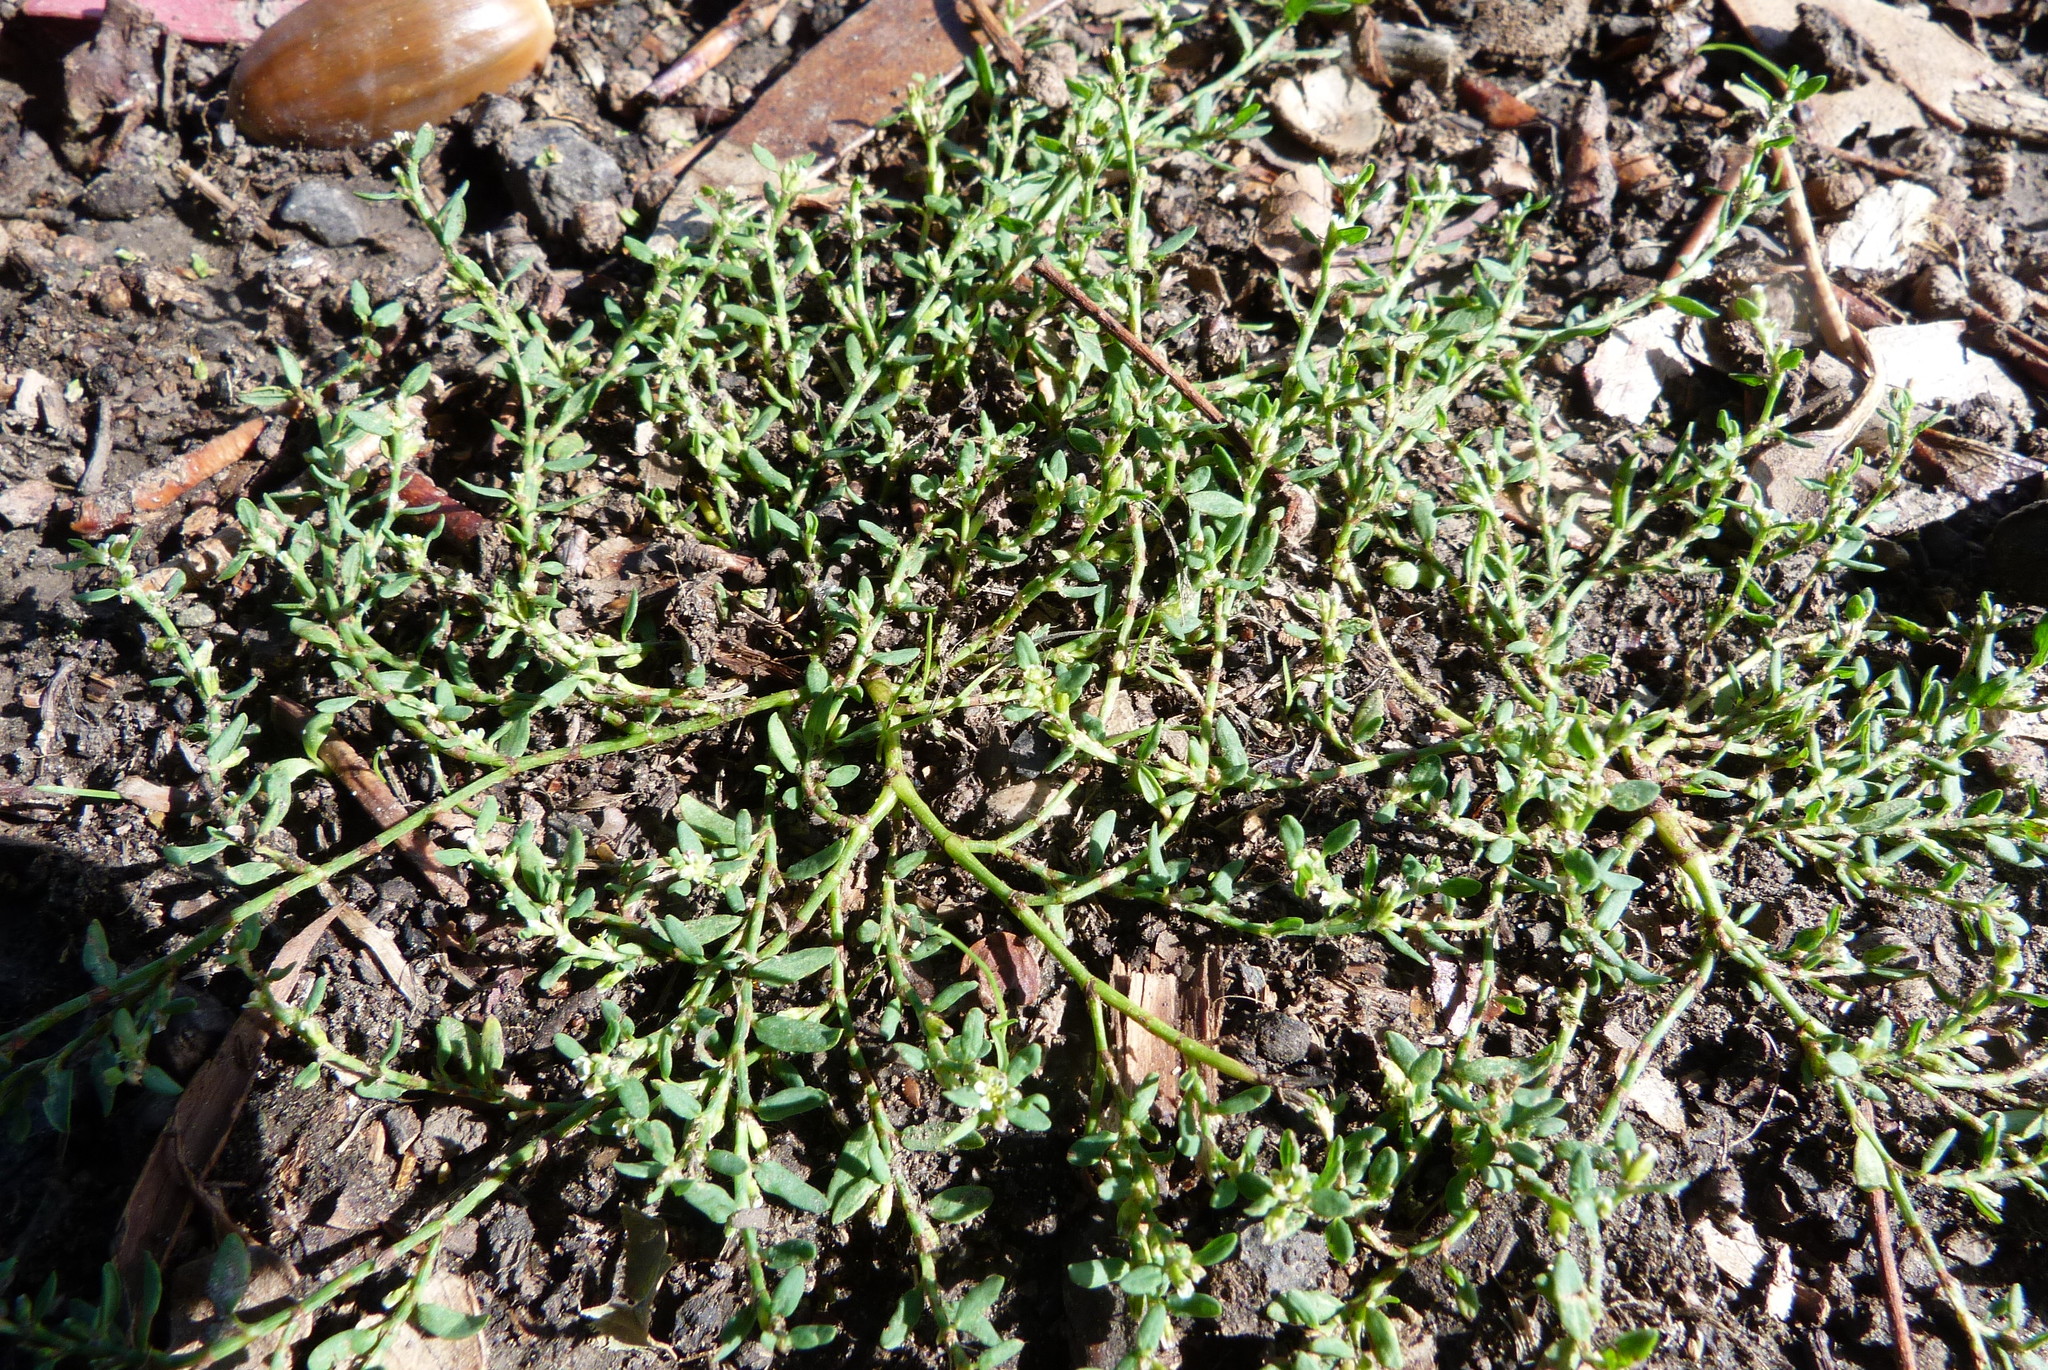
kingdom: Plantae
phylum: Tracheophyta
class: Magnoliopsida
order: Caryophyllales
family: Polygonaceae
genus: Polygonum
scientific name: Polygonum aviculare
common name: Prostrate knotweed
